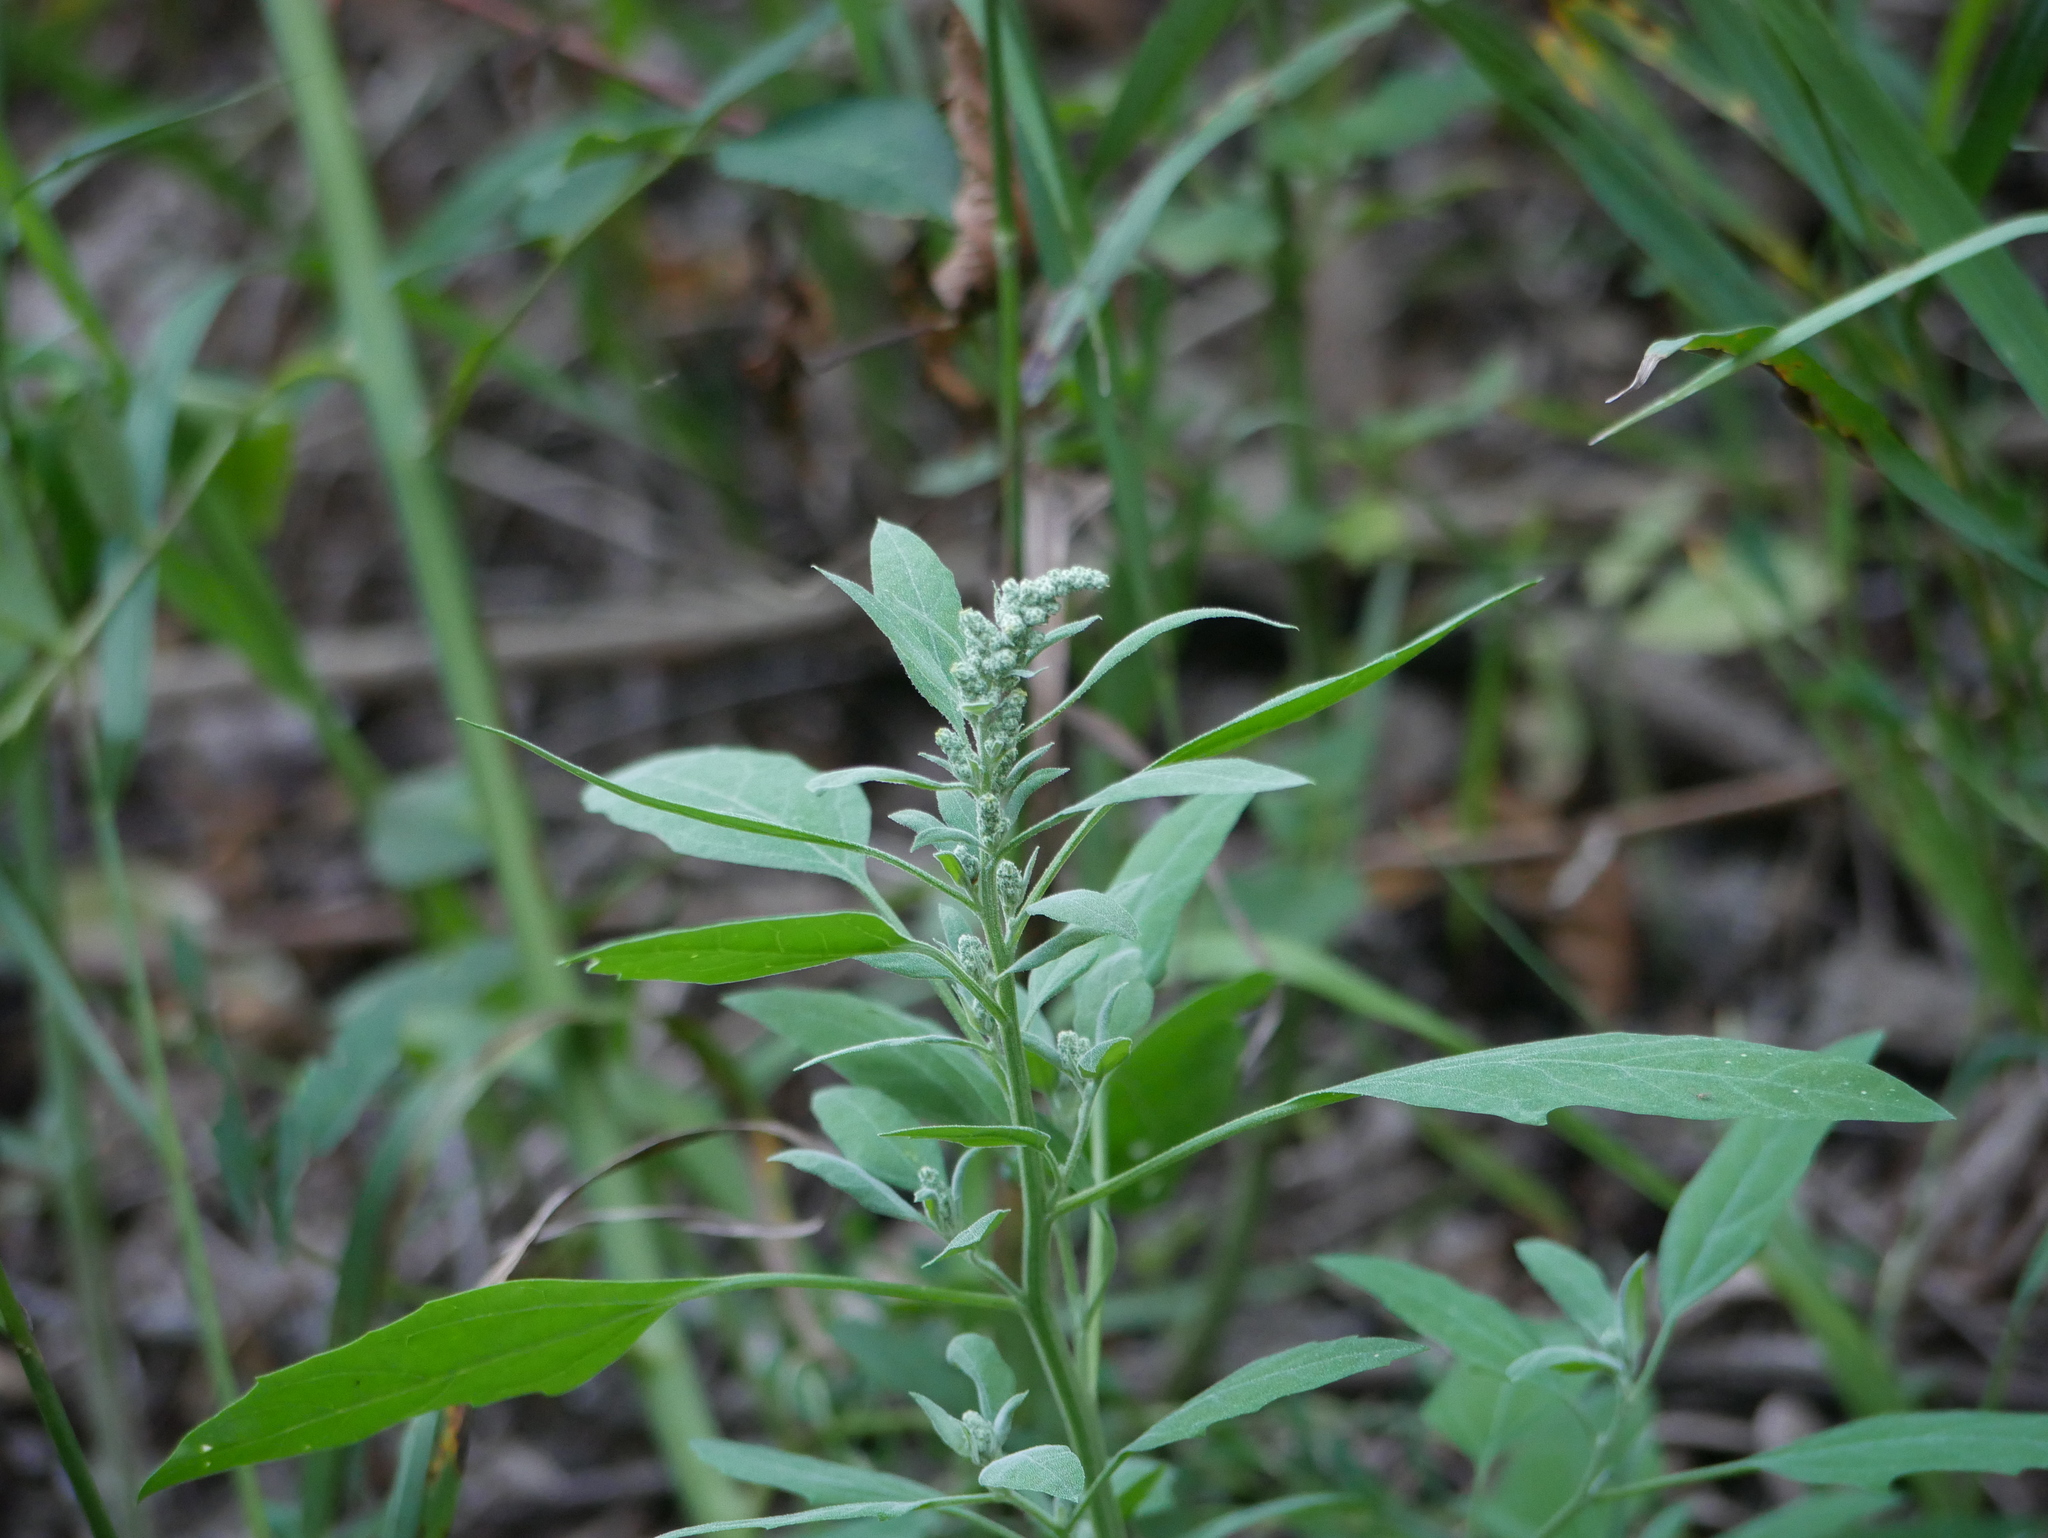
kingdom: Plantae
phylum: Tracheophyta
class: Magnoliopsida
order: Caryophyllales
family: Amaranthaceae
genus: Chenopodium
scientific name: Chenopodium album
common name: Fat-hen
